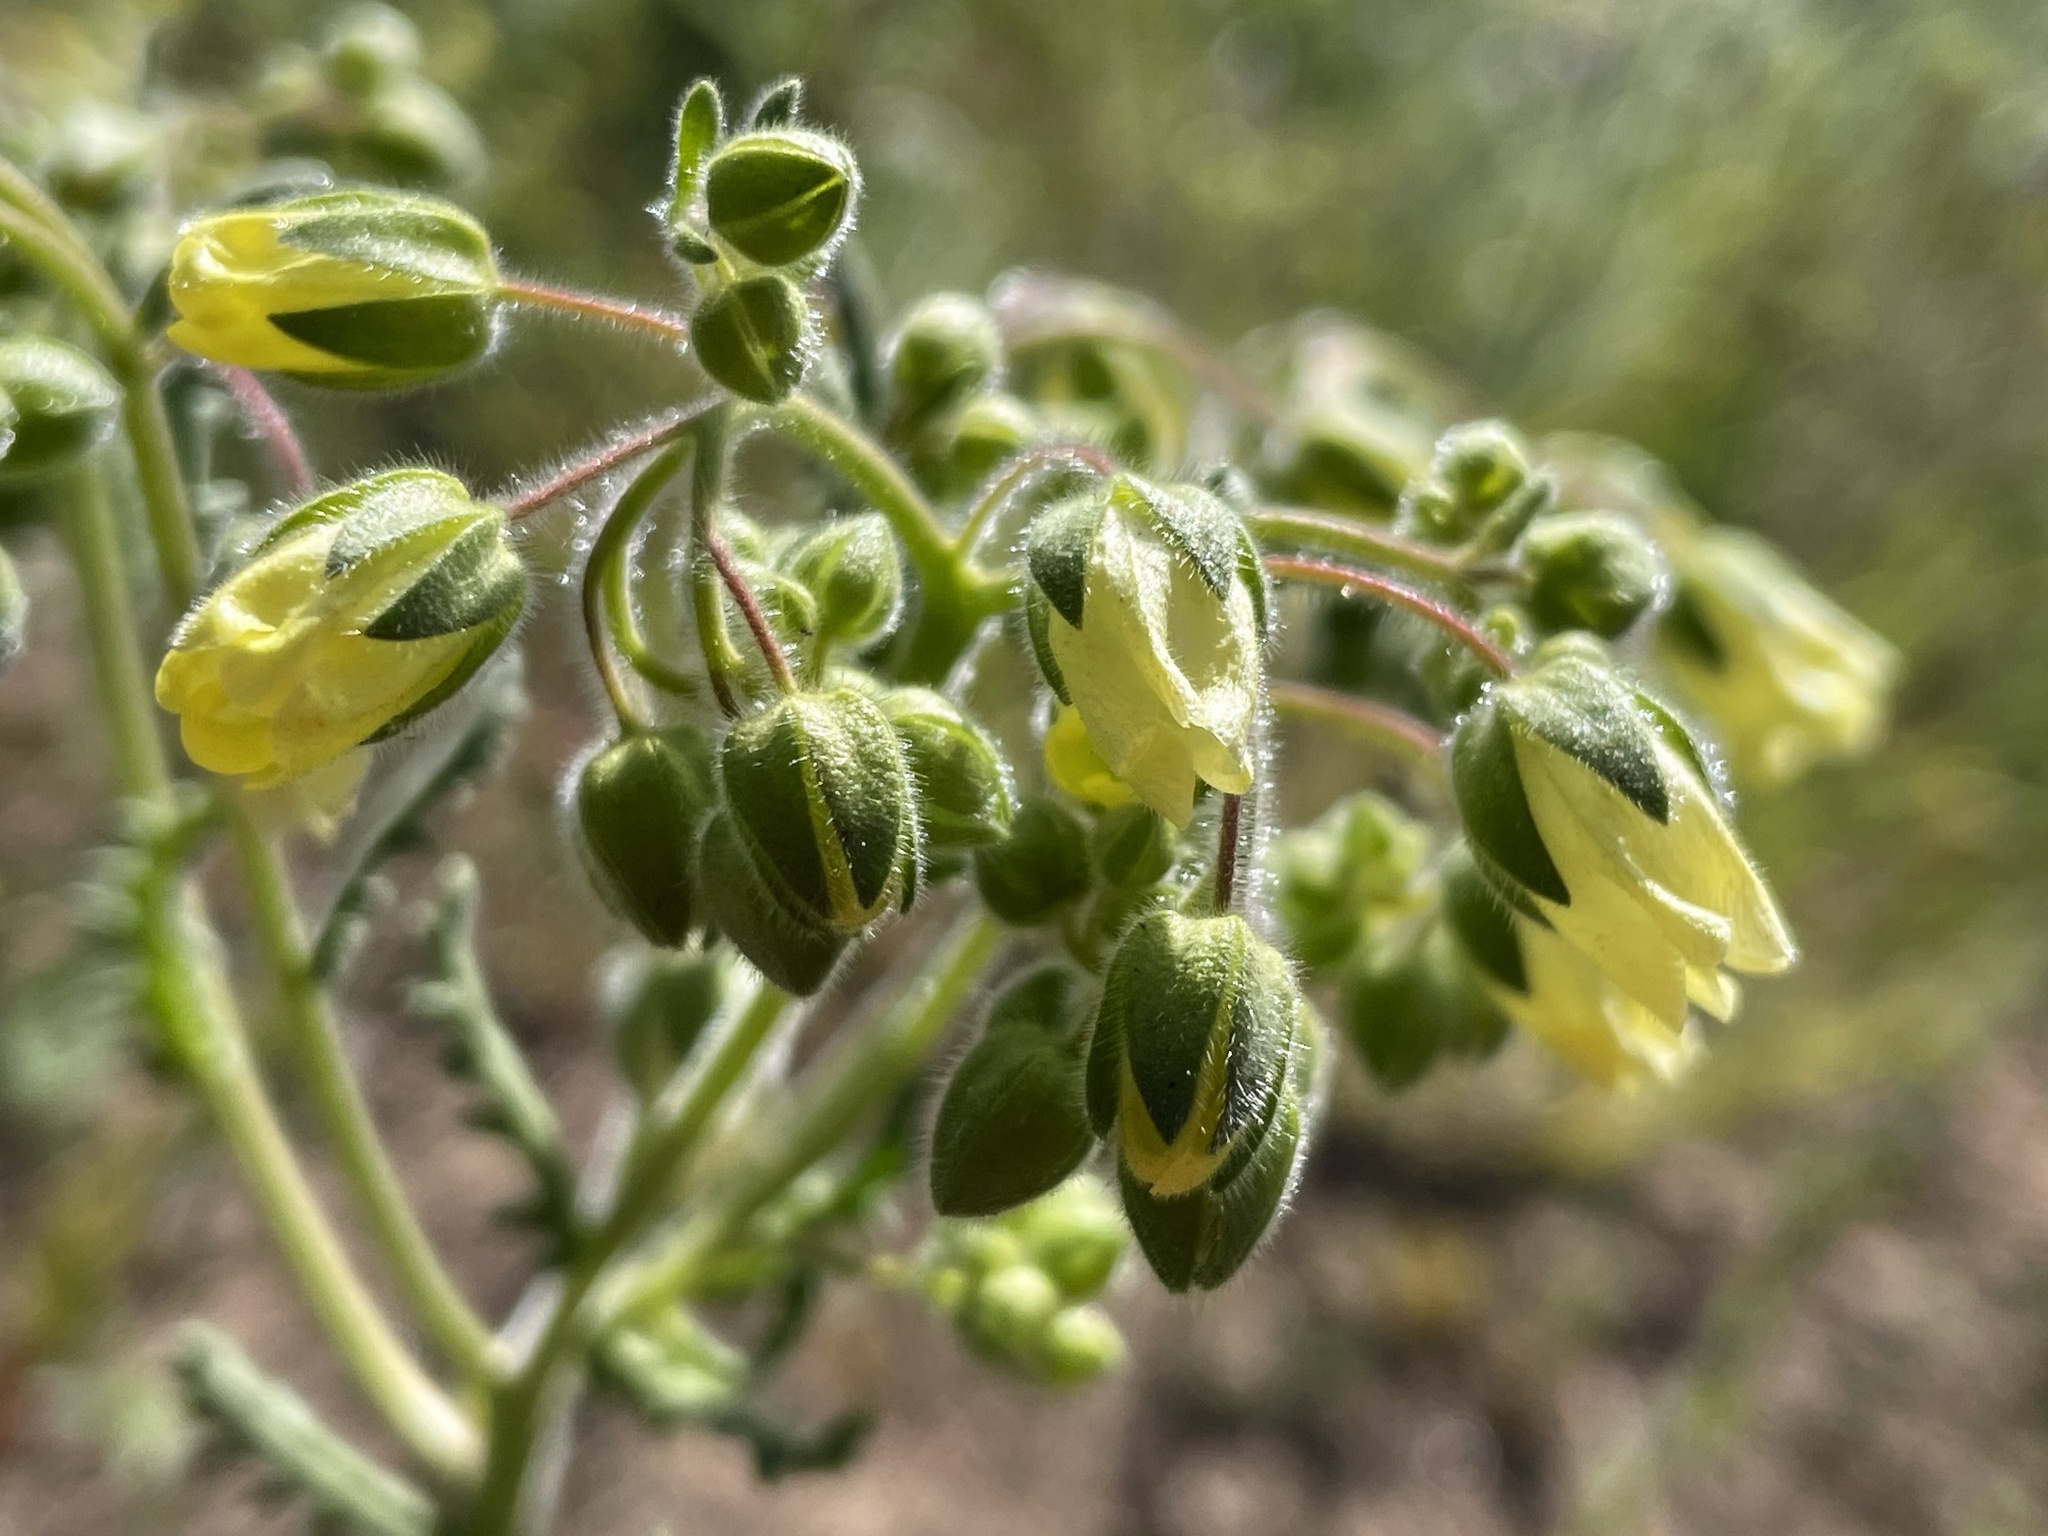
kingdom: Plantae
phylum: Tracheophyta
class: Magnoliopsida
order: Boraginales
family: Hydrophyllaceae
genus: Emmenanthe
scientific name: Emmenanthe penduliflora
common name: Whispering-bells
